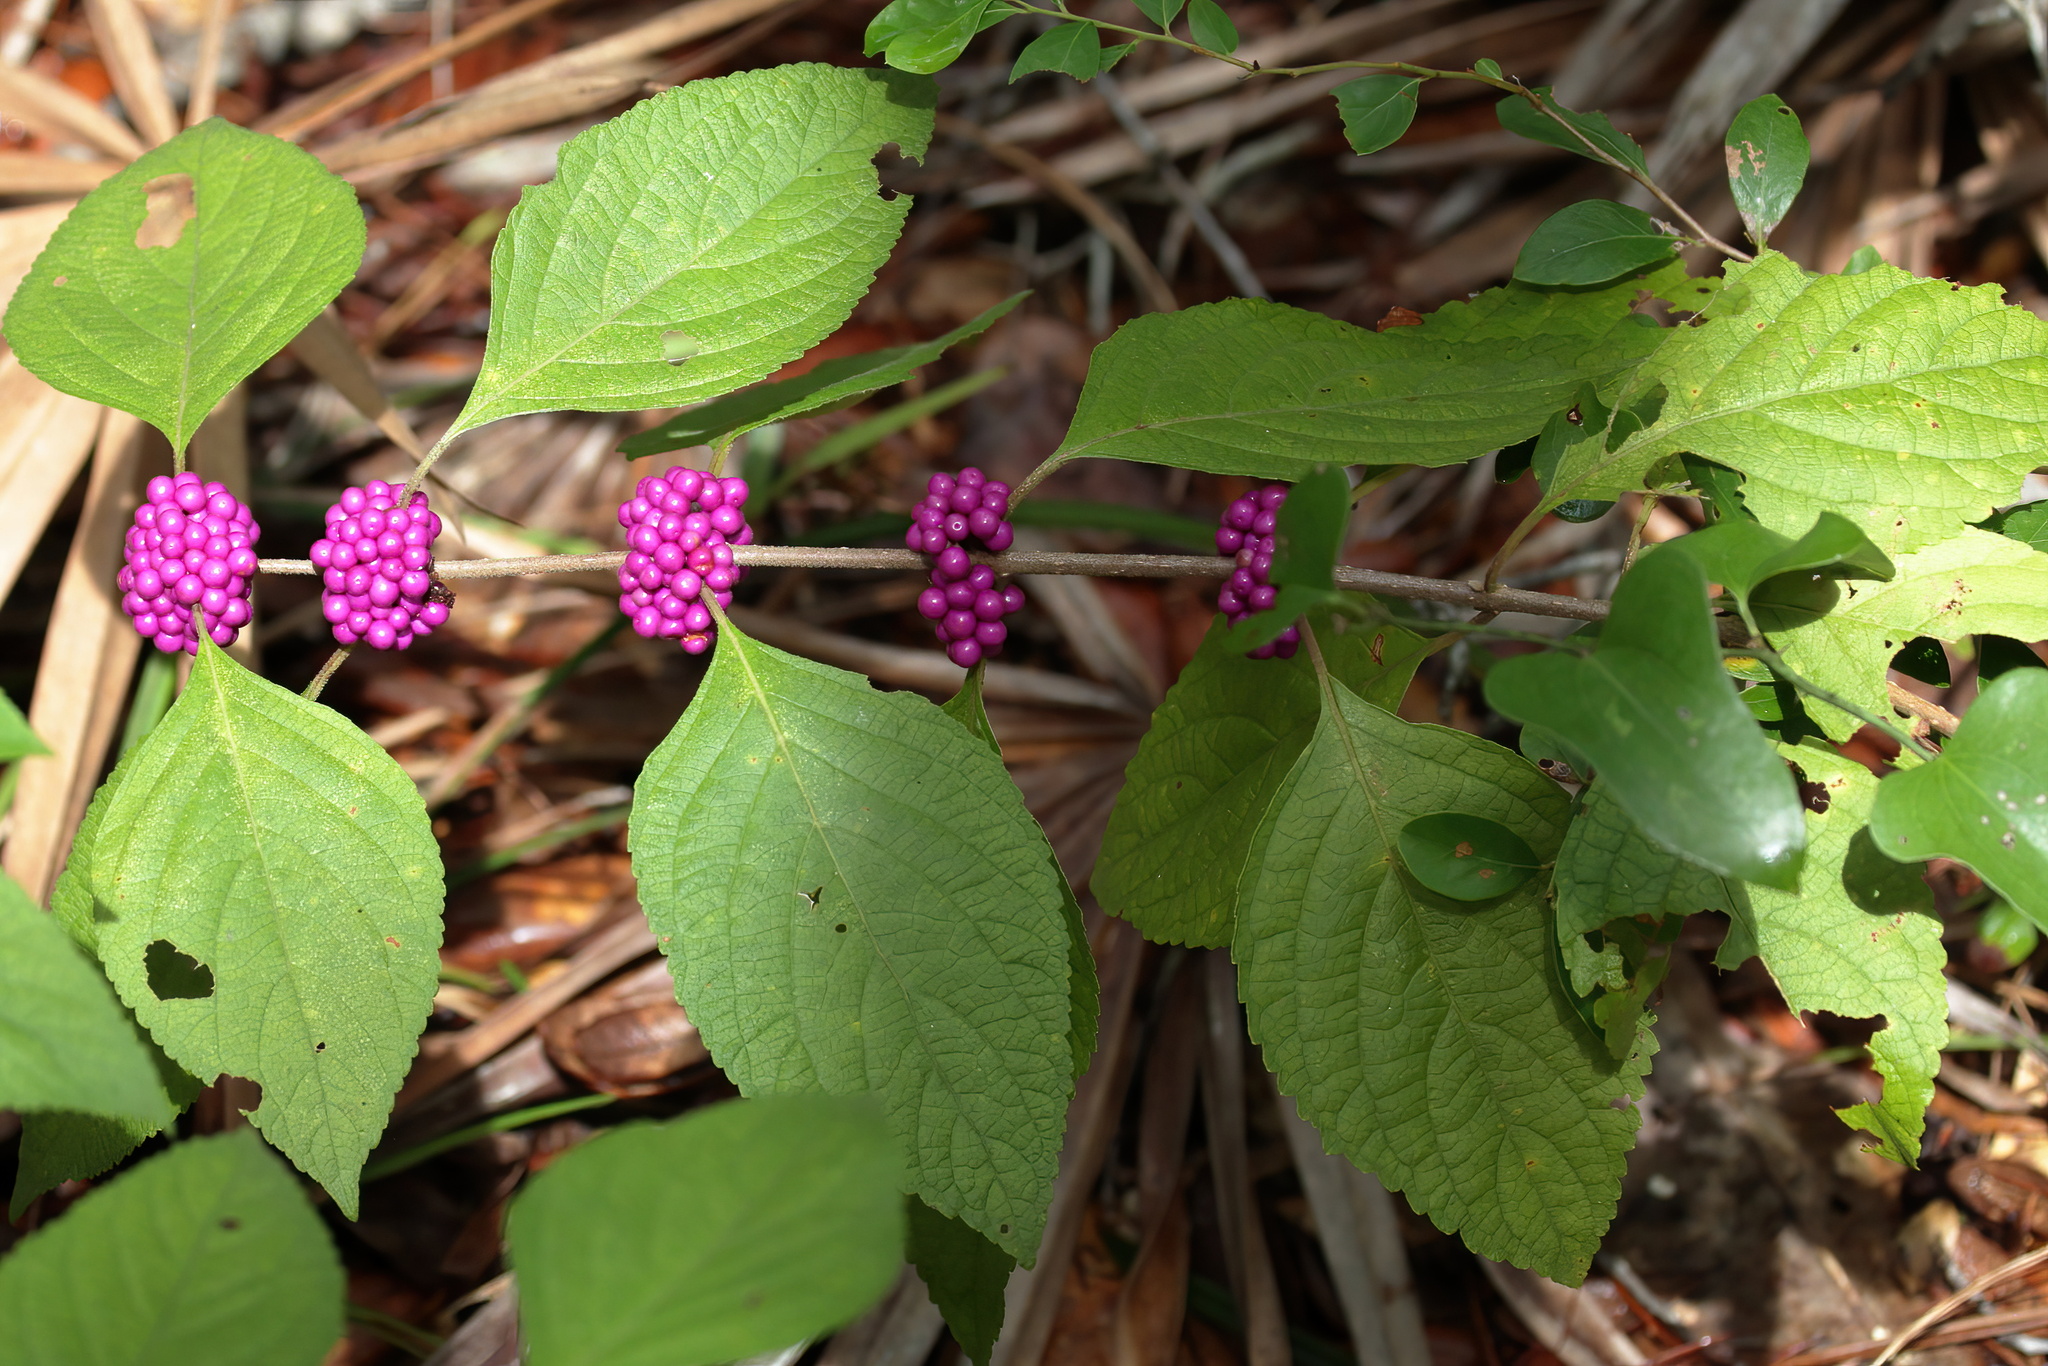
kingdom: Plantae
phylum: Tracheophyta
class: Magnoliopsida
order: Lamiales
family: Lamiaceae
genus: Callicarpa
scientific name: Callicarpa americana
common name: American beautyberry
